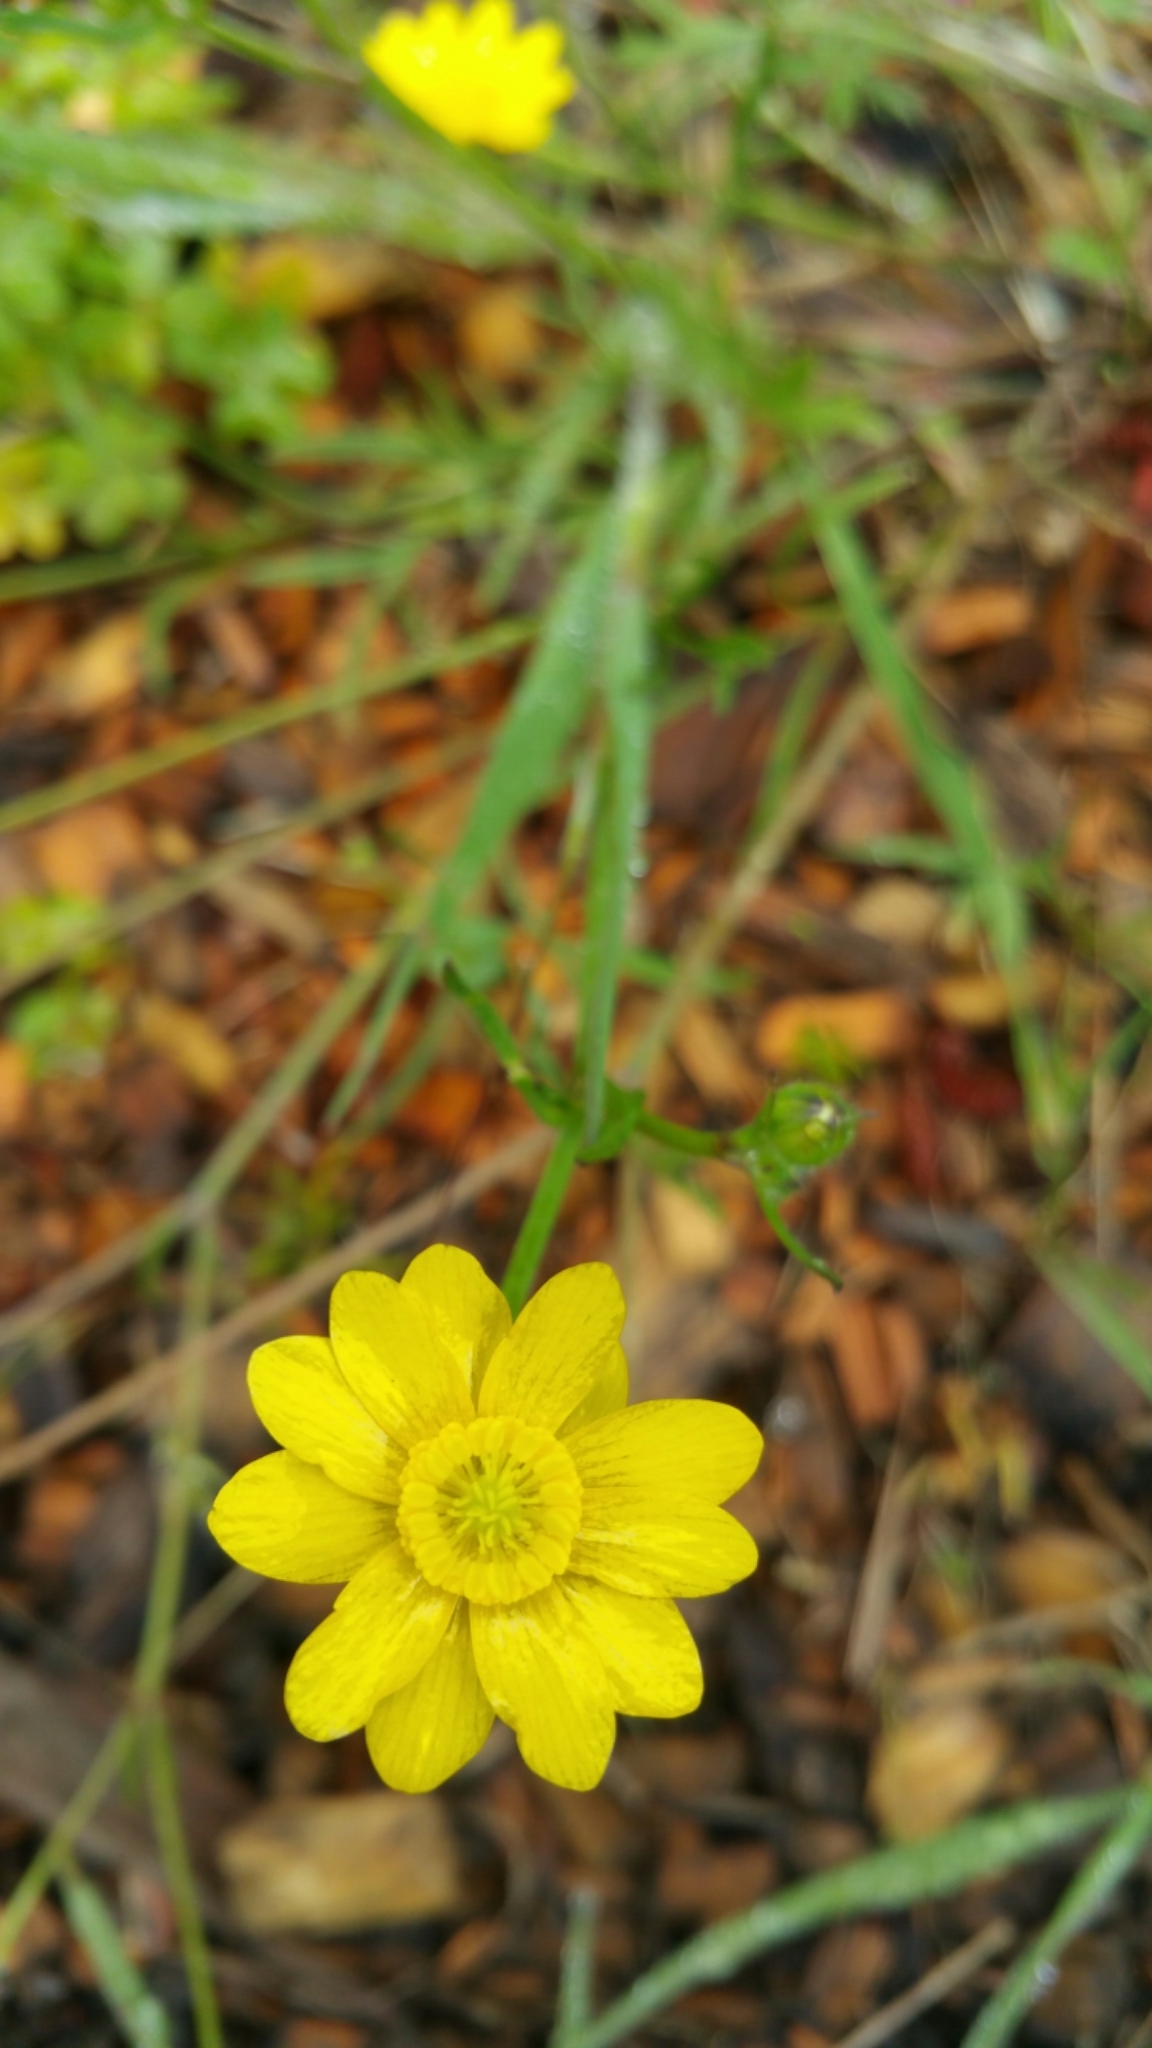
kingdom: Plantae
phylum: Tracheophyta
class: Magnoliopsida
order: Ranunculales
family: Ranunculaceae
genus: Ranunculus
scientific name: Ranunculus californicus
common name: California buttercup
